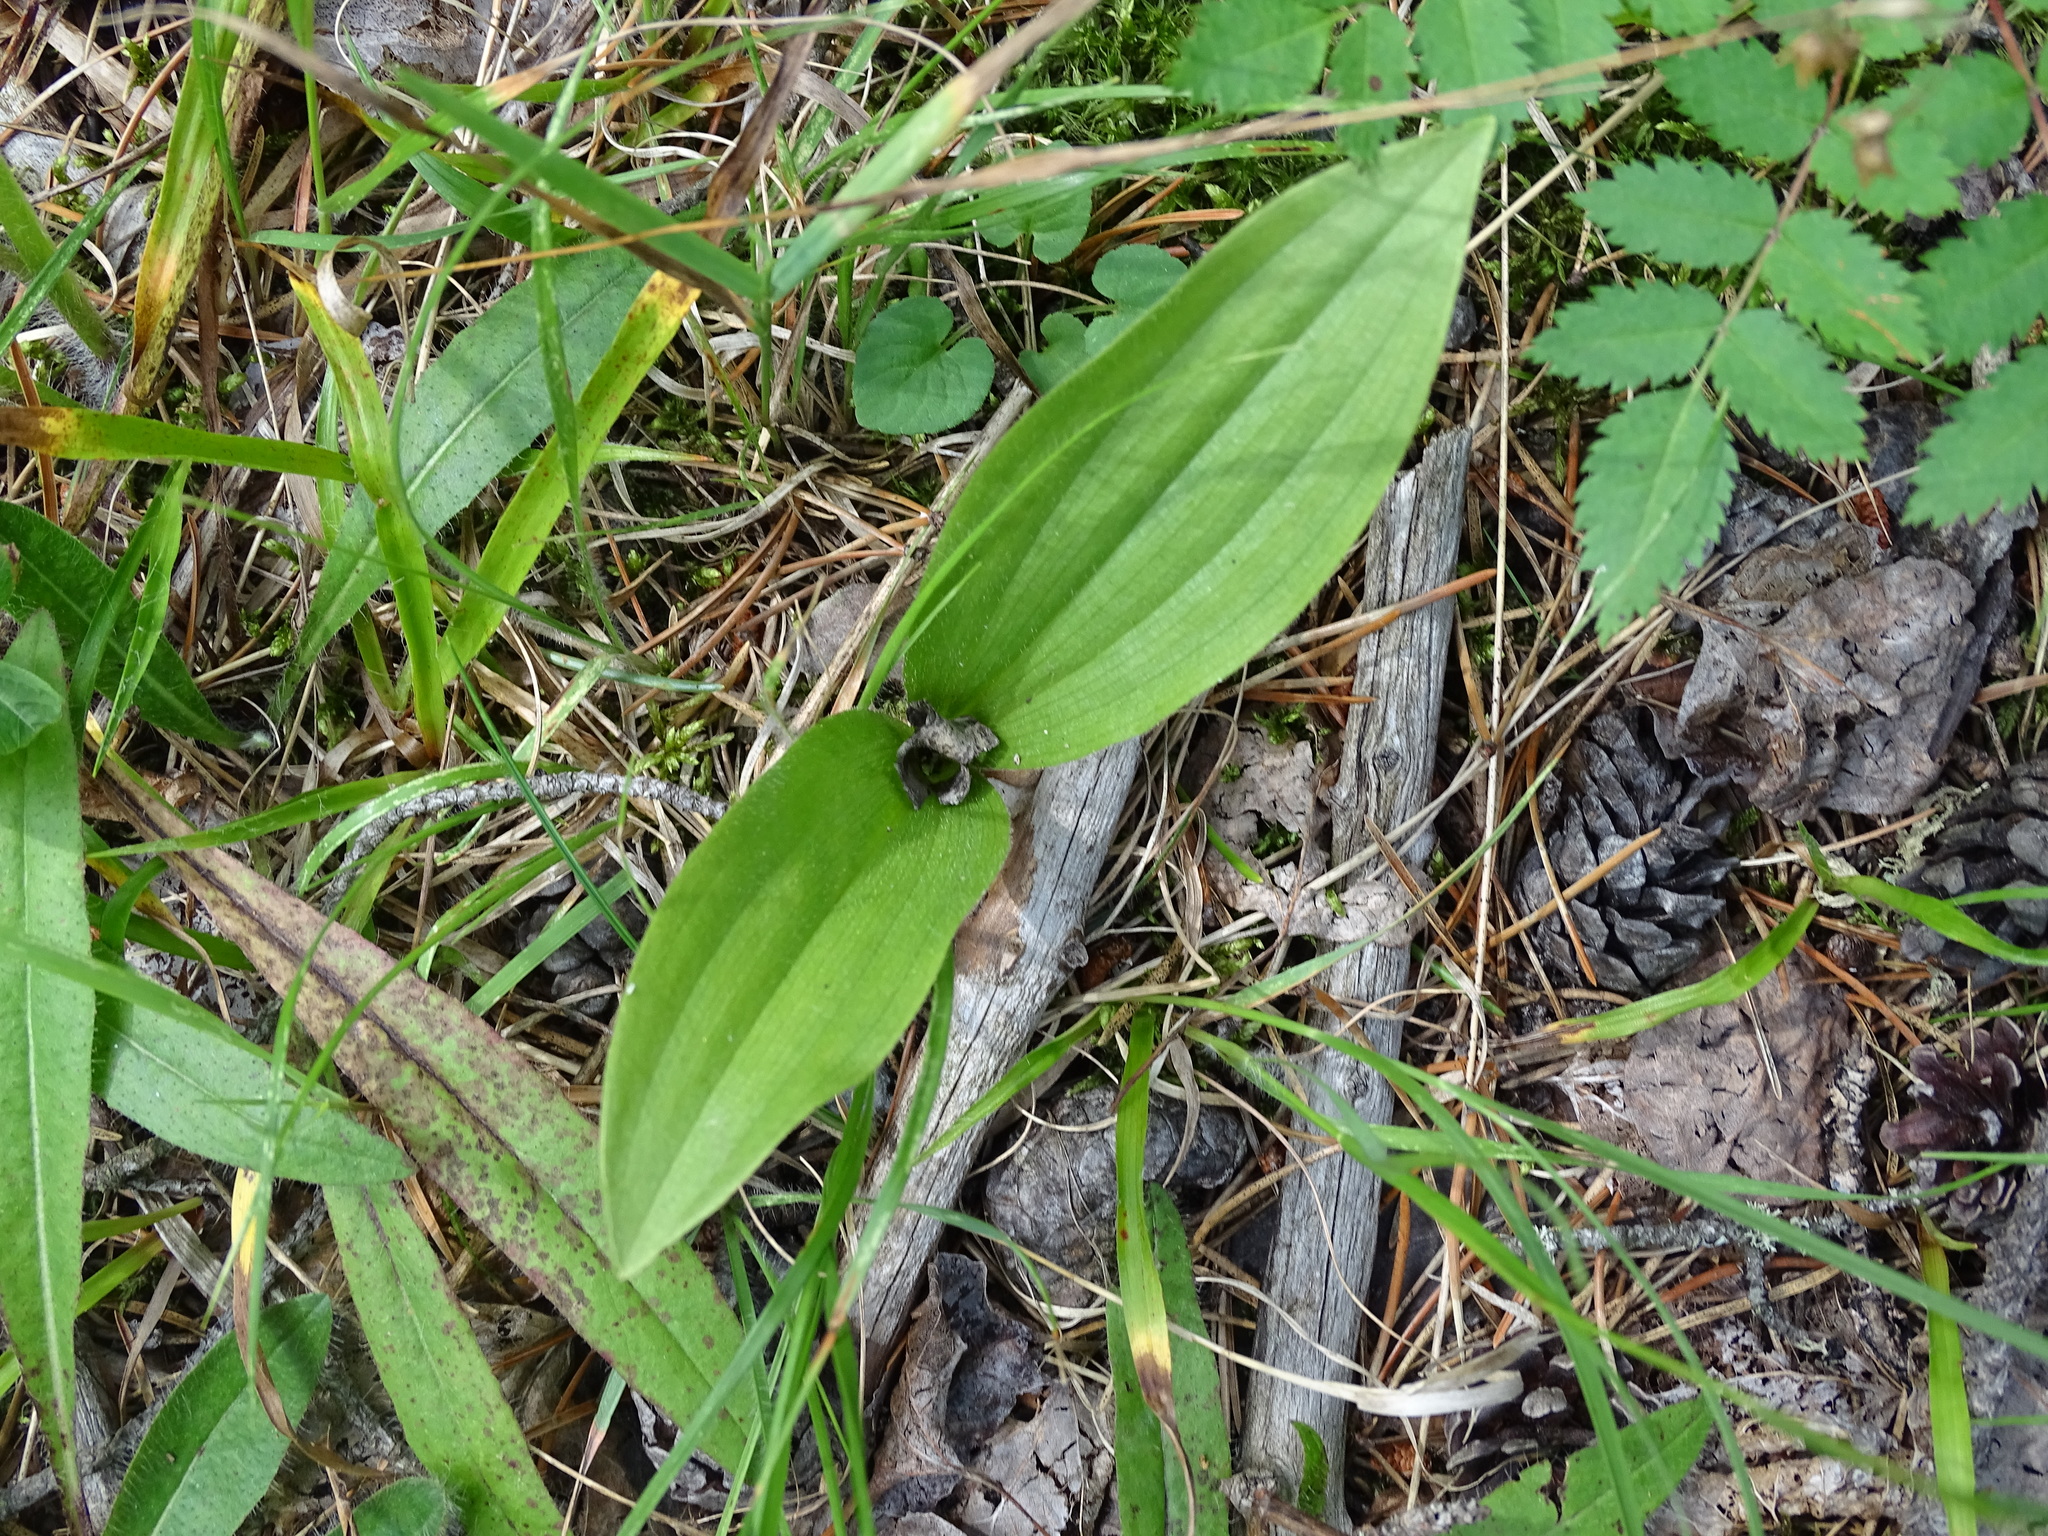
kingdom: Plantae
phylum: Tracheophyta
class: Liliopsida
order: Asparagales
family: Orchidaceae
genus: Cypripedium
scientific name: Cypripedium acaule
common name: Pink lady's-slipper
